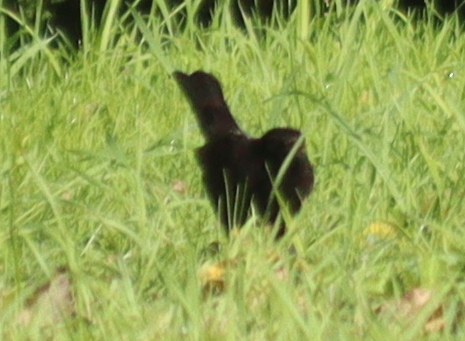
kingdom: Animalia
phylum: Chordata
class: Aves
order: Passeriformes
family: Turdidae
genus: Turdus
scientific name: Turdus merula
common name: Common blackbird
